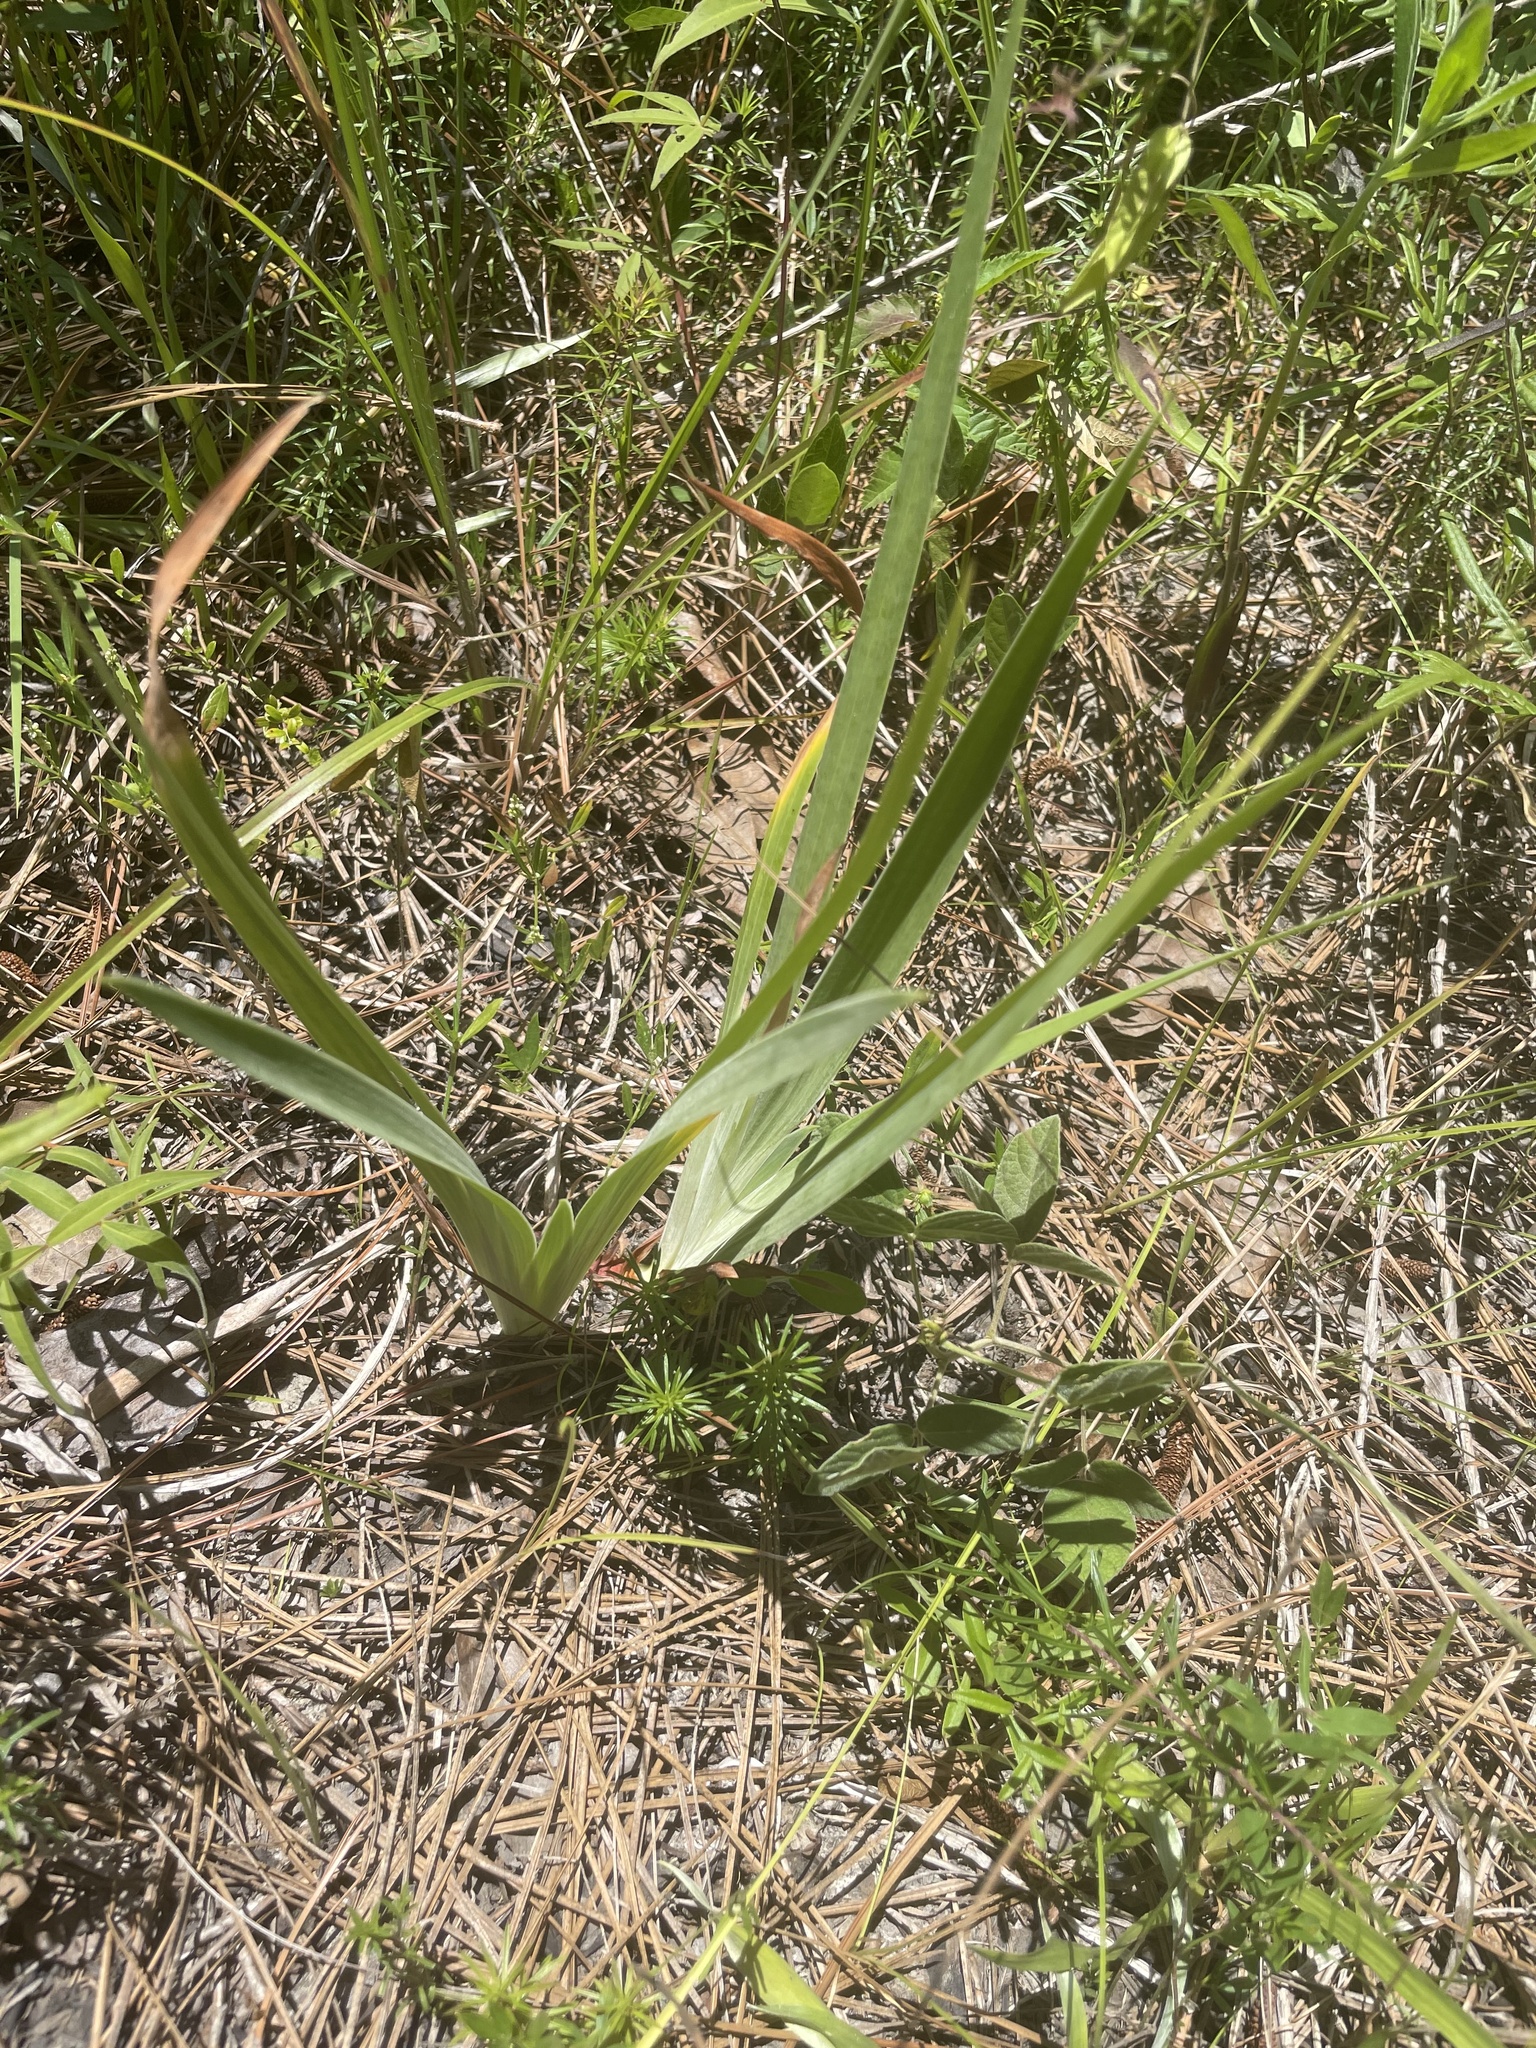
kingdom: Plantae
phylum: Tracheophyta
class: Liliopsida
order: Asparagales
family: Iridaceae
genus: Iris
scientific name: Iris verna
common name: Dwarf iris
